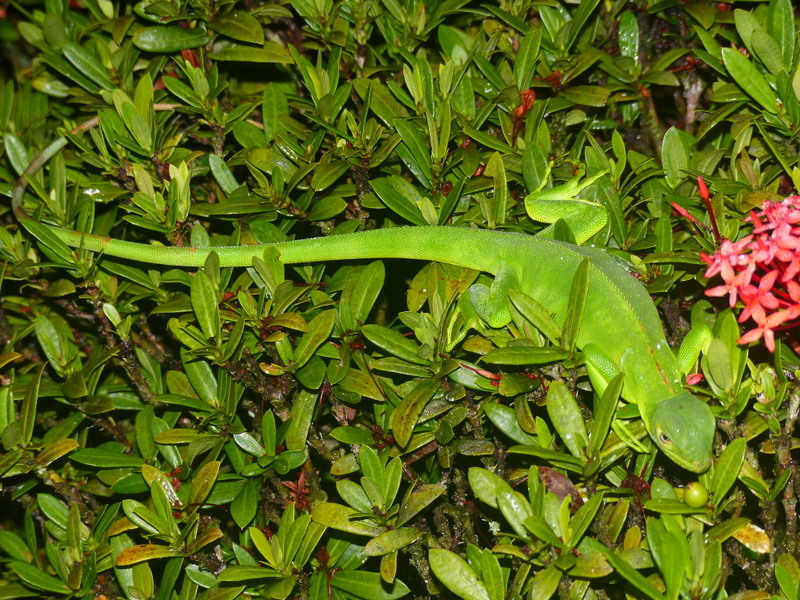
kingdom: Animalia
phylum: Chordata
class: Squamata
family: Iguanidae
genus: Iguana
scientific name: Iguana iguana
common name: Green iguana
